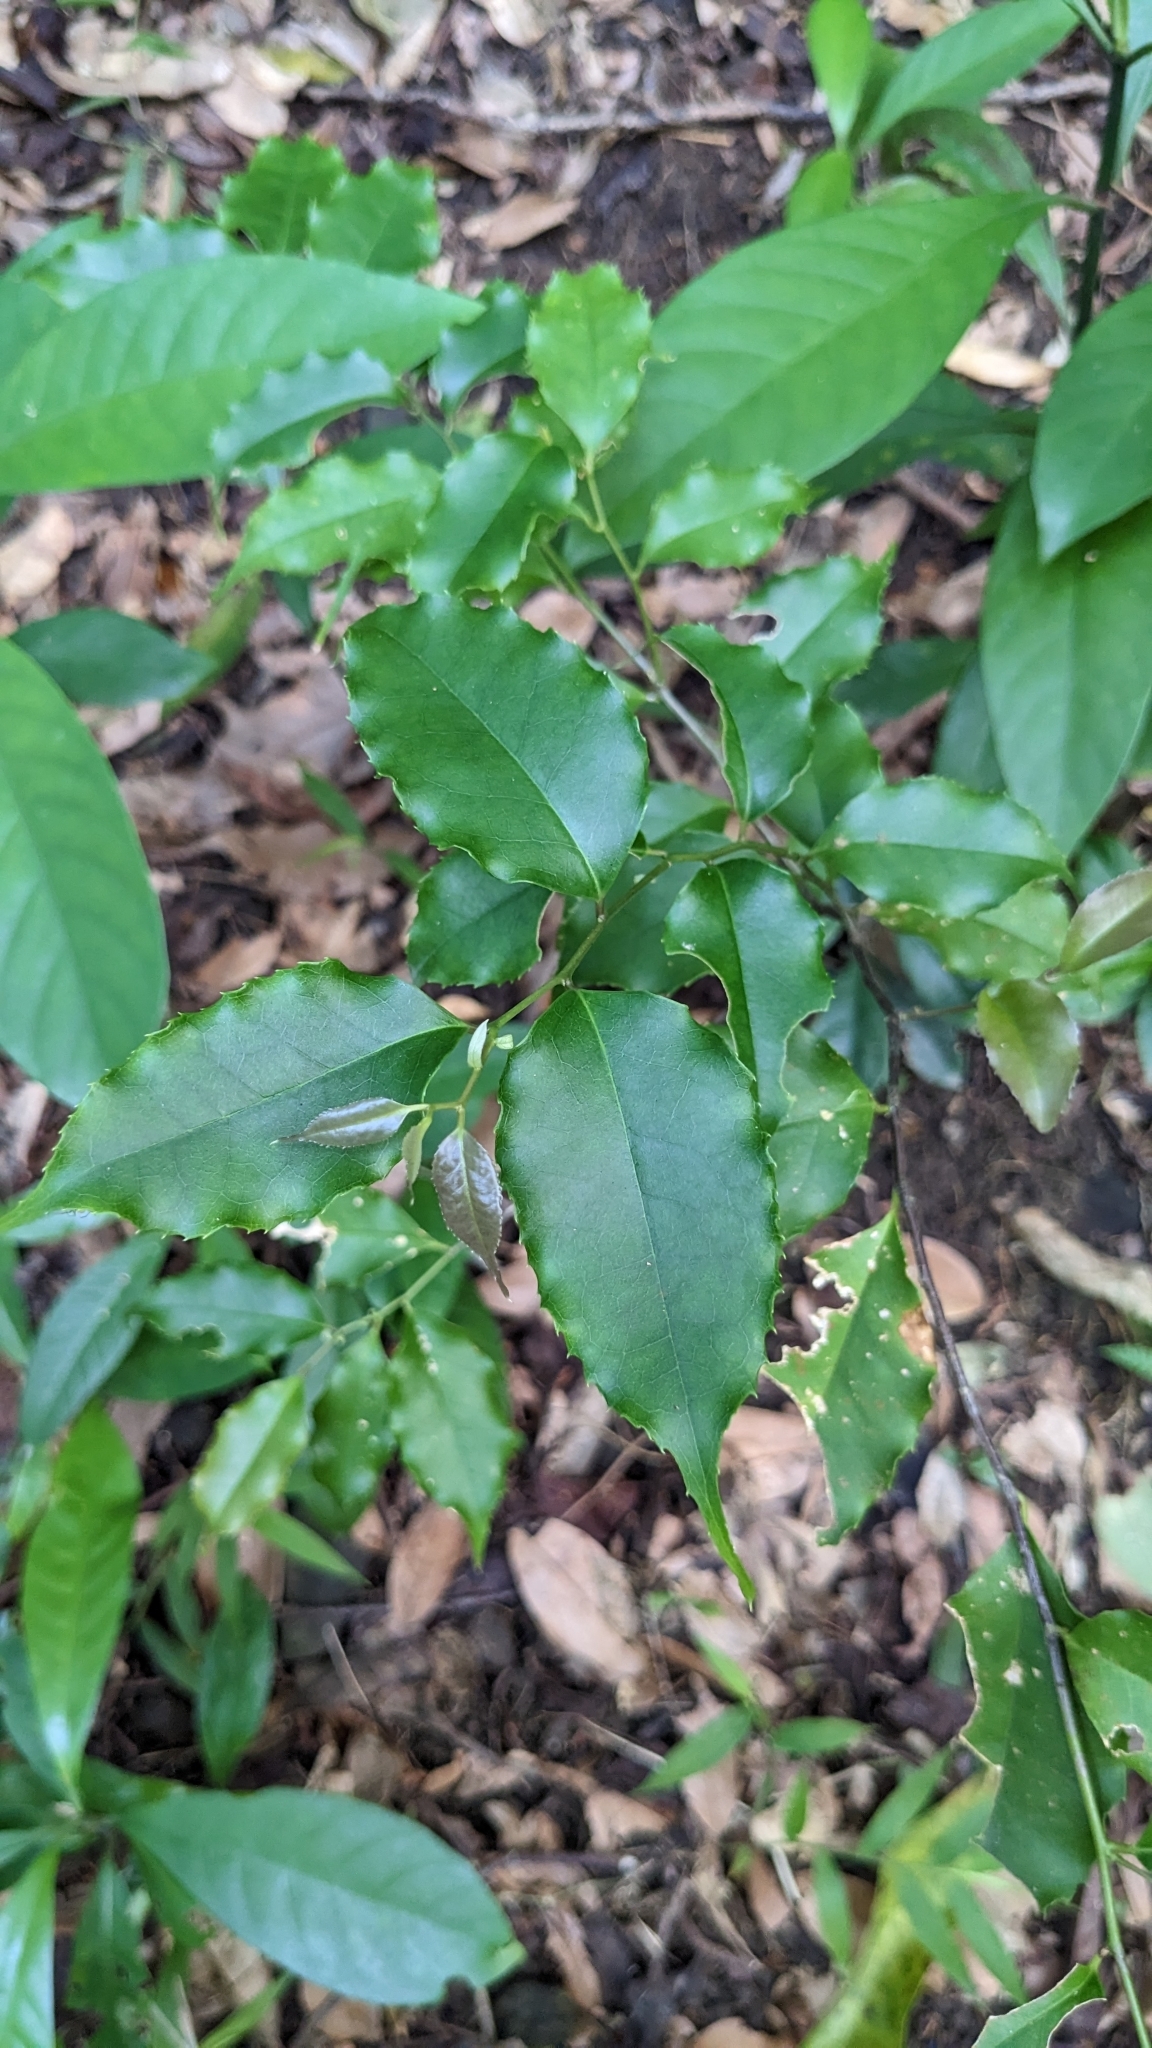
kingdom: Plantae
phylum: Tracheophyta
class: Magnoliopsida
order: Ericales
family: Symplocaceae
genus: Symplocos
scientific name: Symplocos sumuntia
